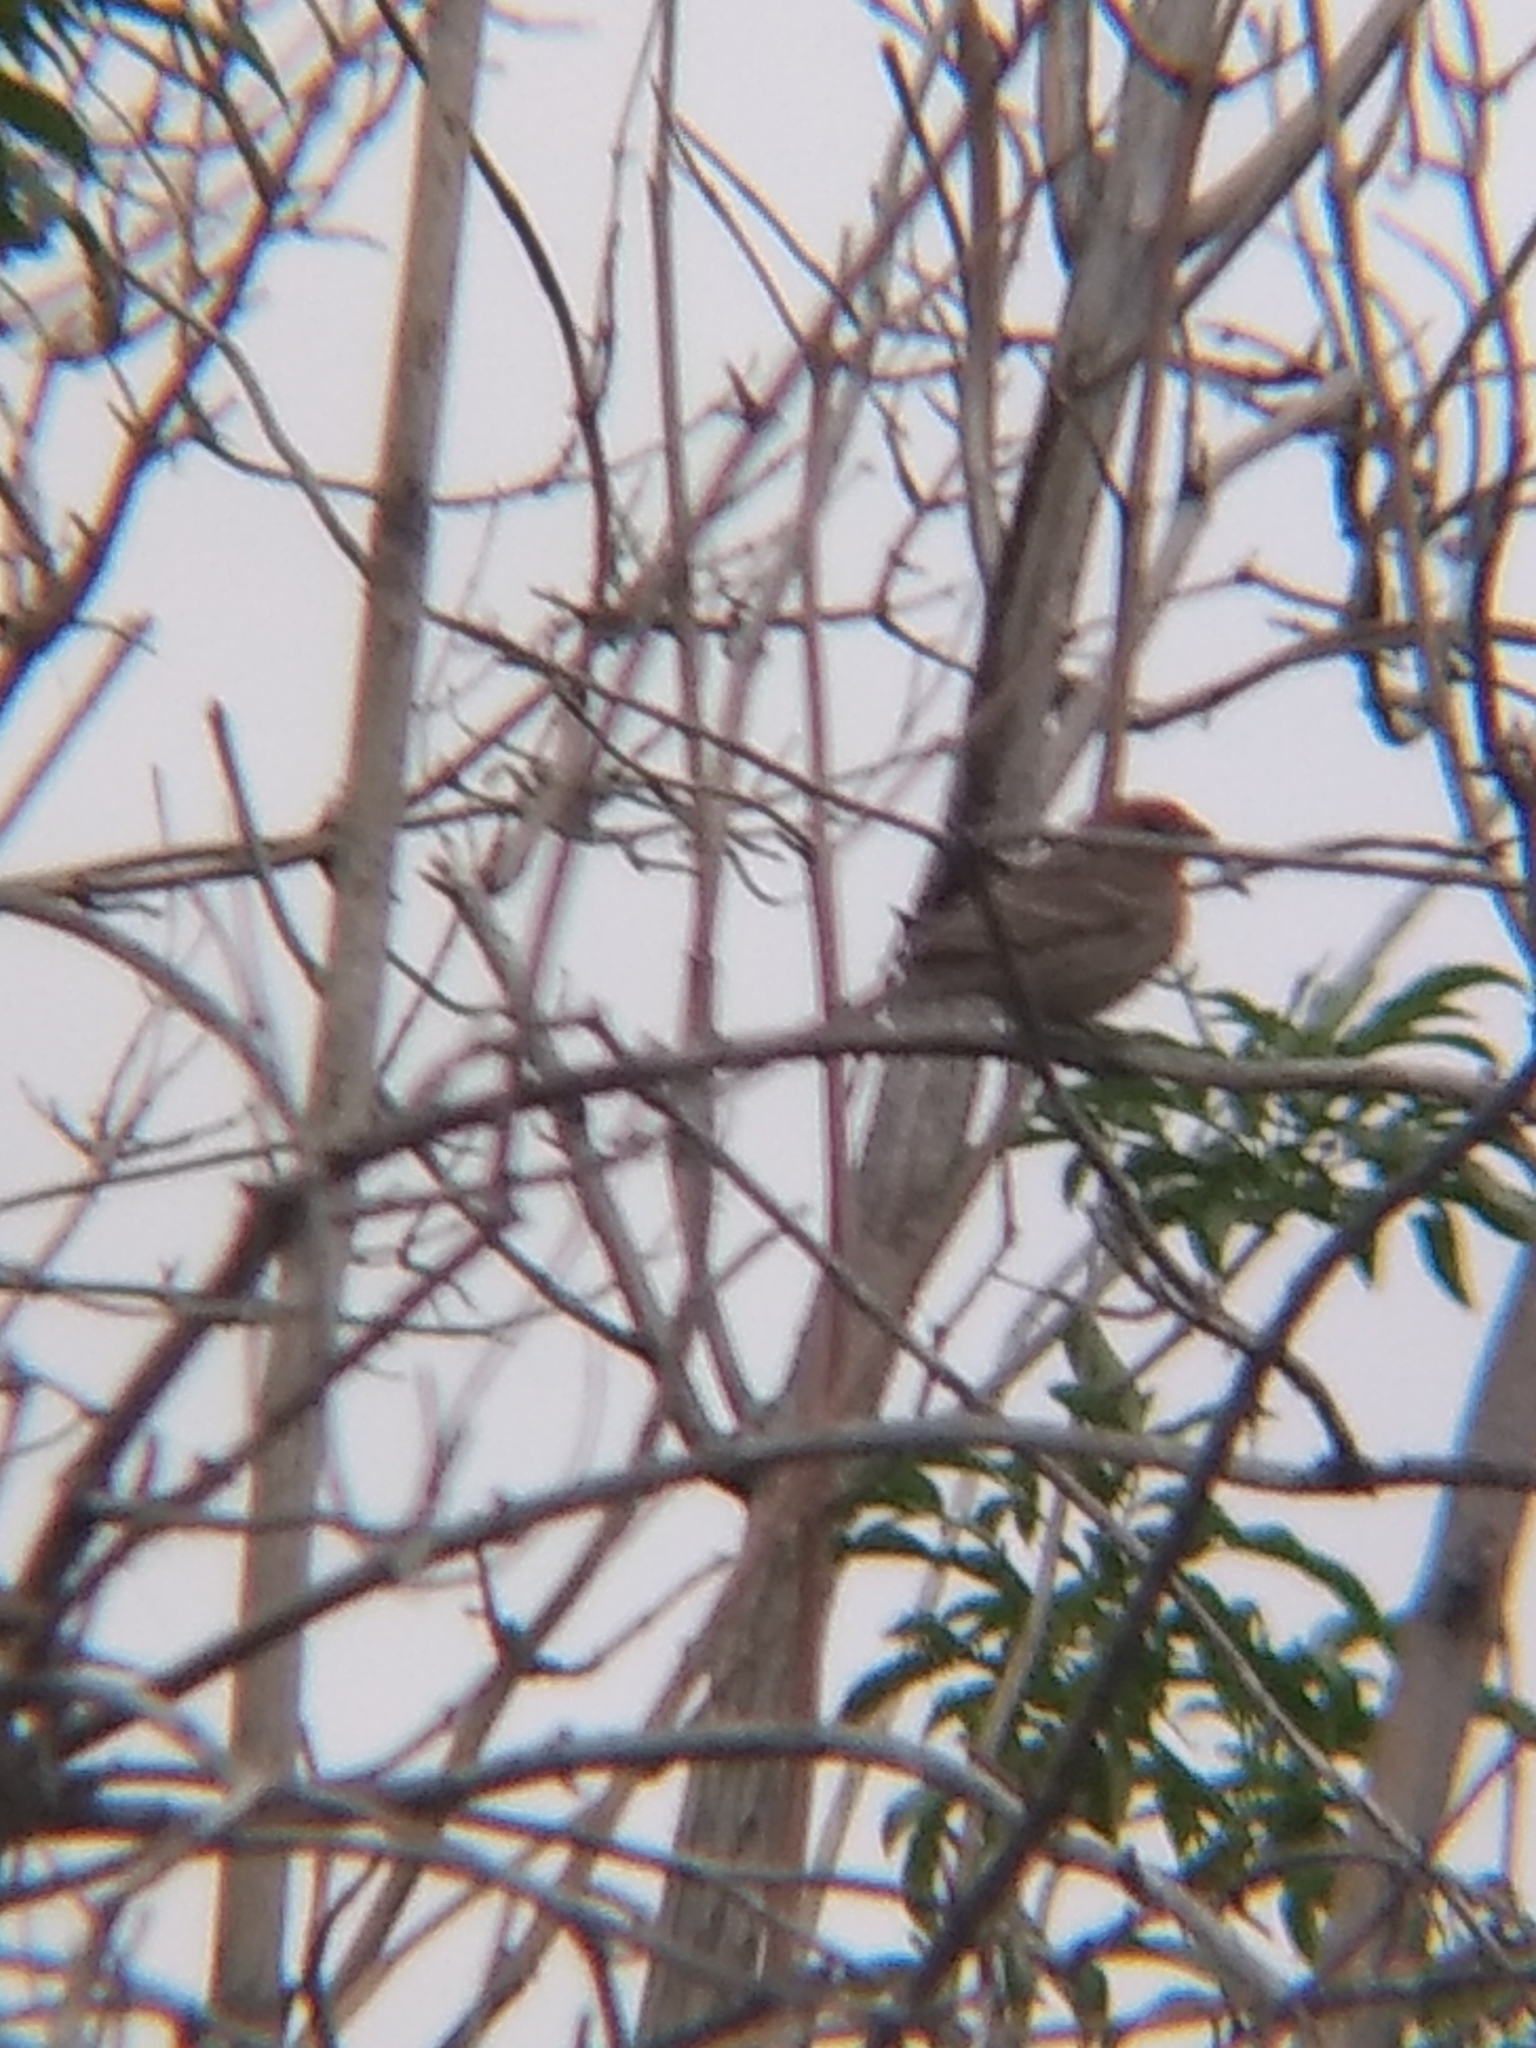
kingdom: Animalia
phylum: Chordata
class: Aves
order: Passeriformes
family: Fringillidae
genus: Haemorhous
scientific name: Haemorhous mexicanus
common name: House finch
